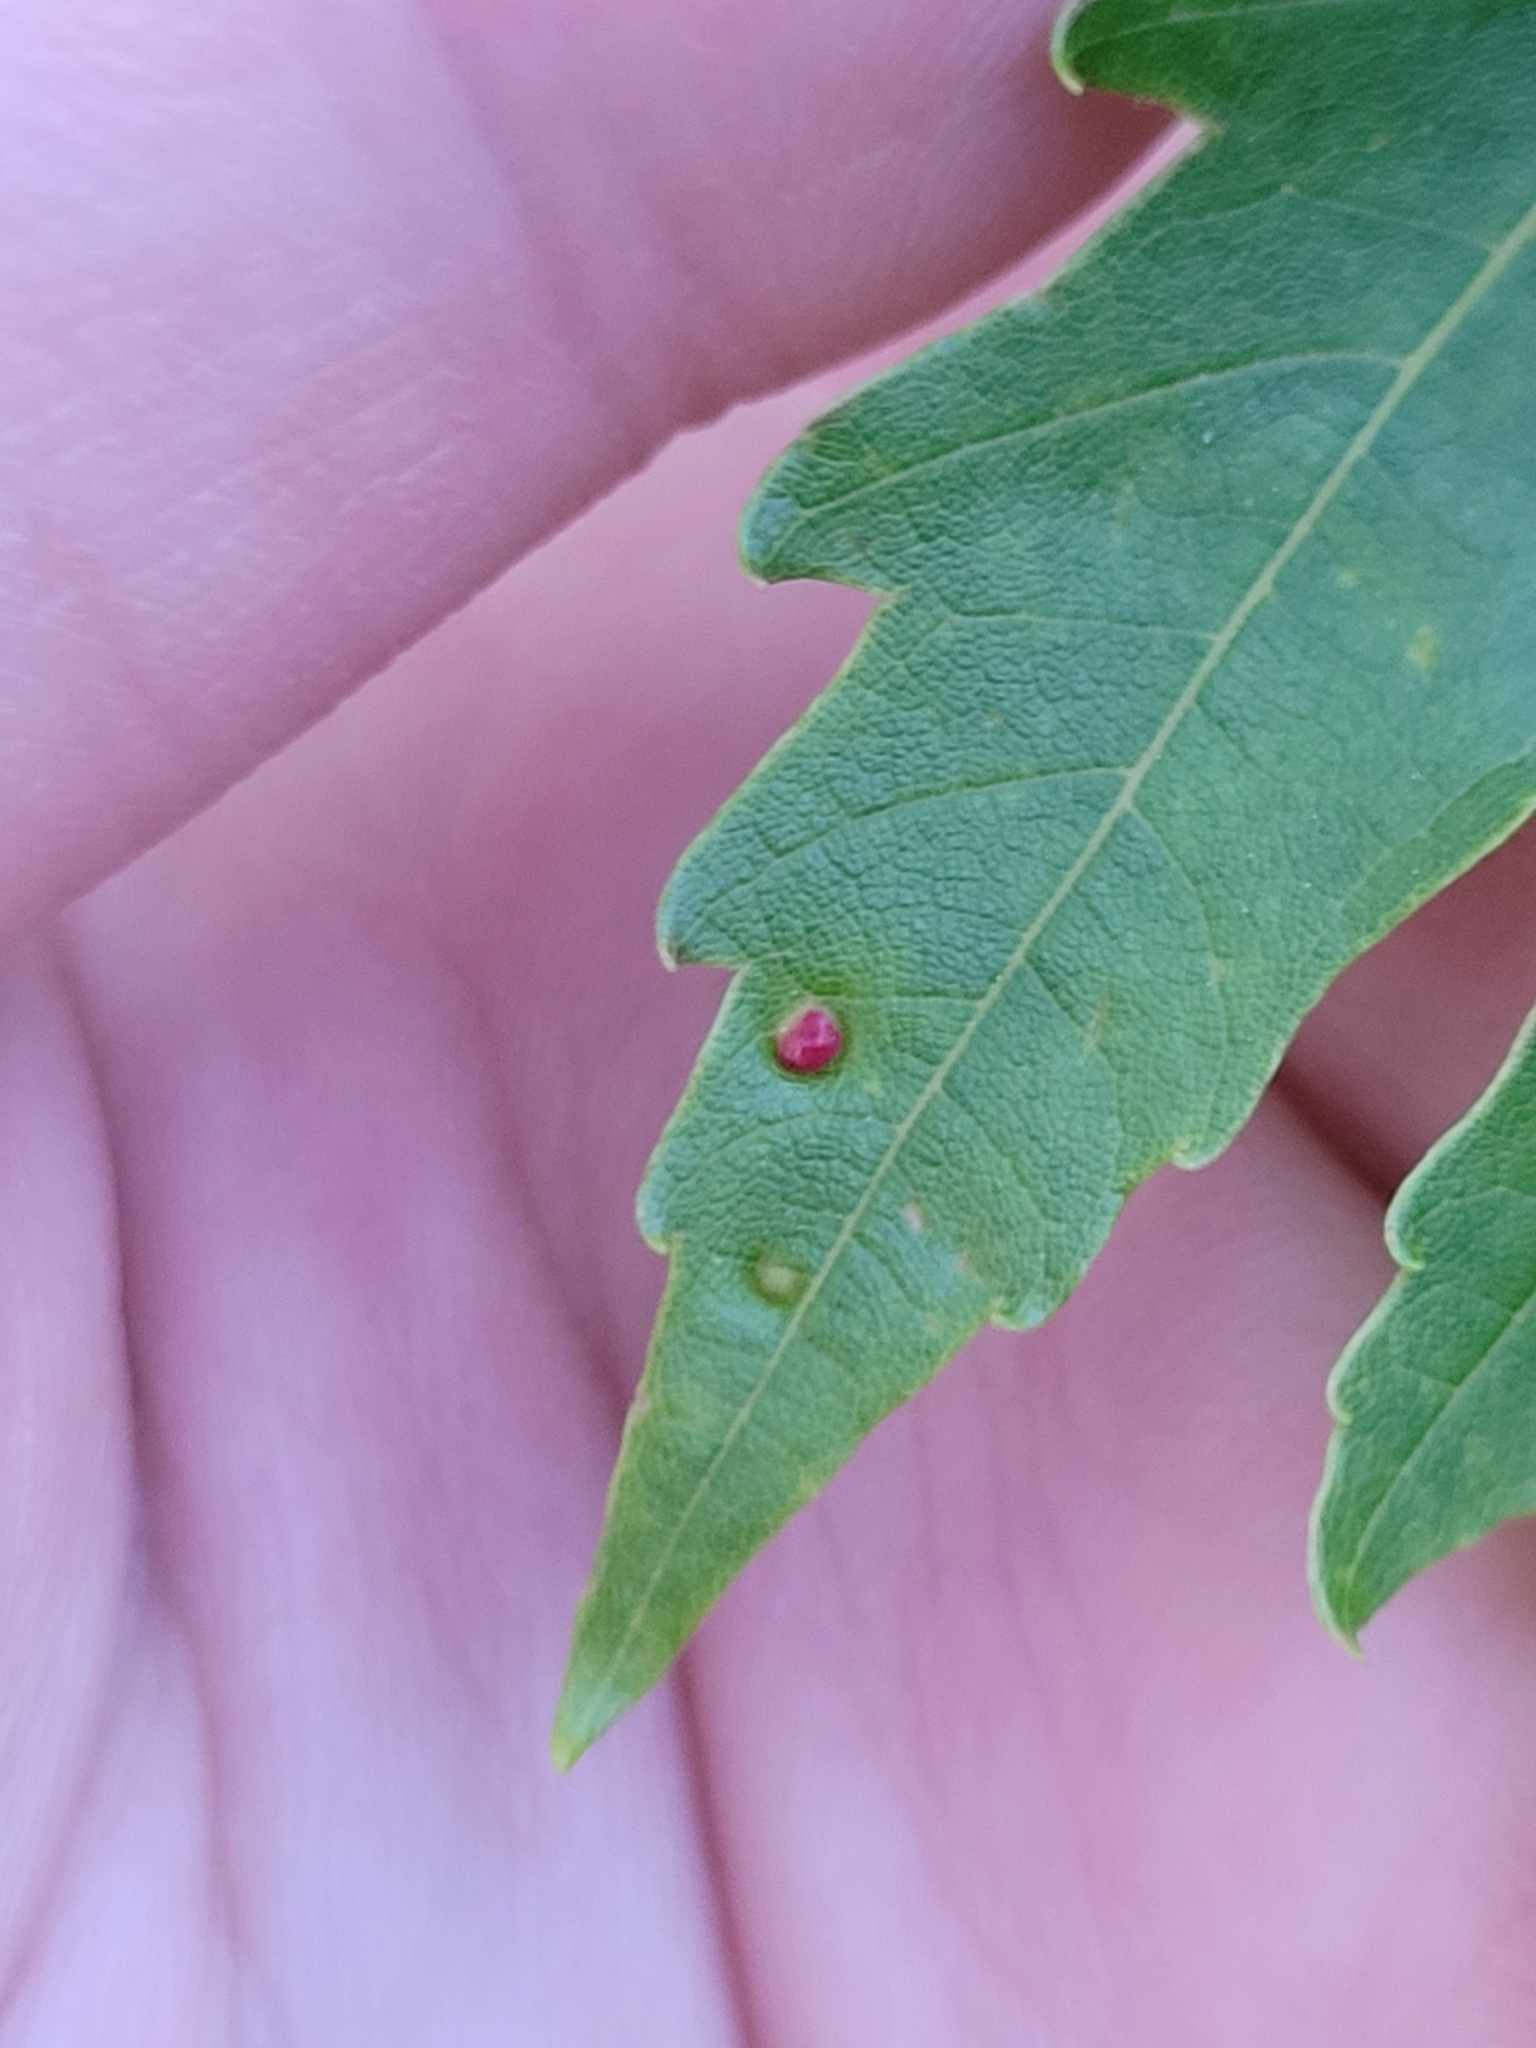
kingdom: Animalia
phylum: Arthropoda
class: Arachnida
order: Trombidiformes
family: Eriophyidae
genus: Vasates
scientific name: Vasates quadripedes
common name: Maple bladder gall mite
